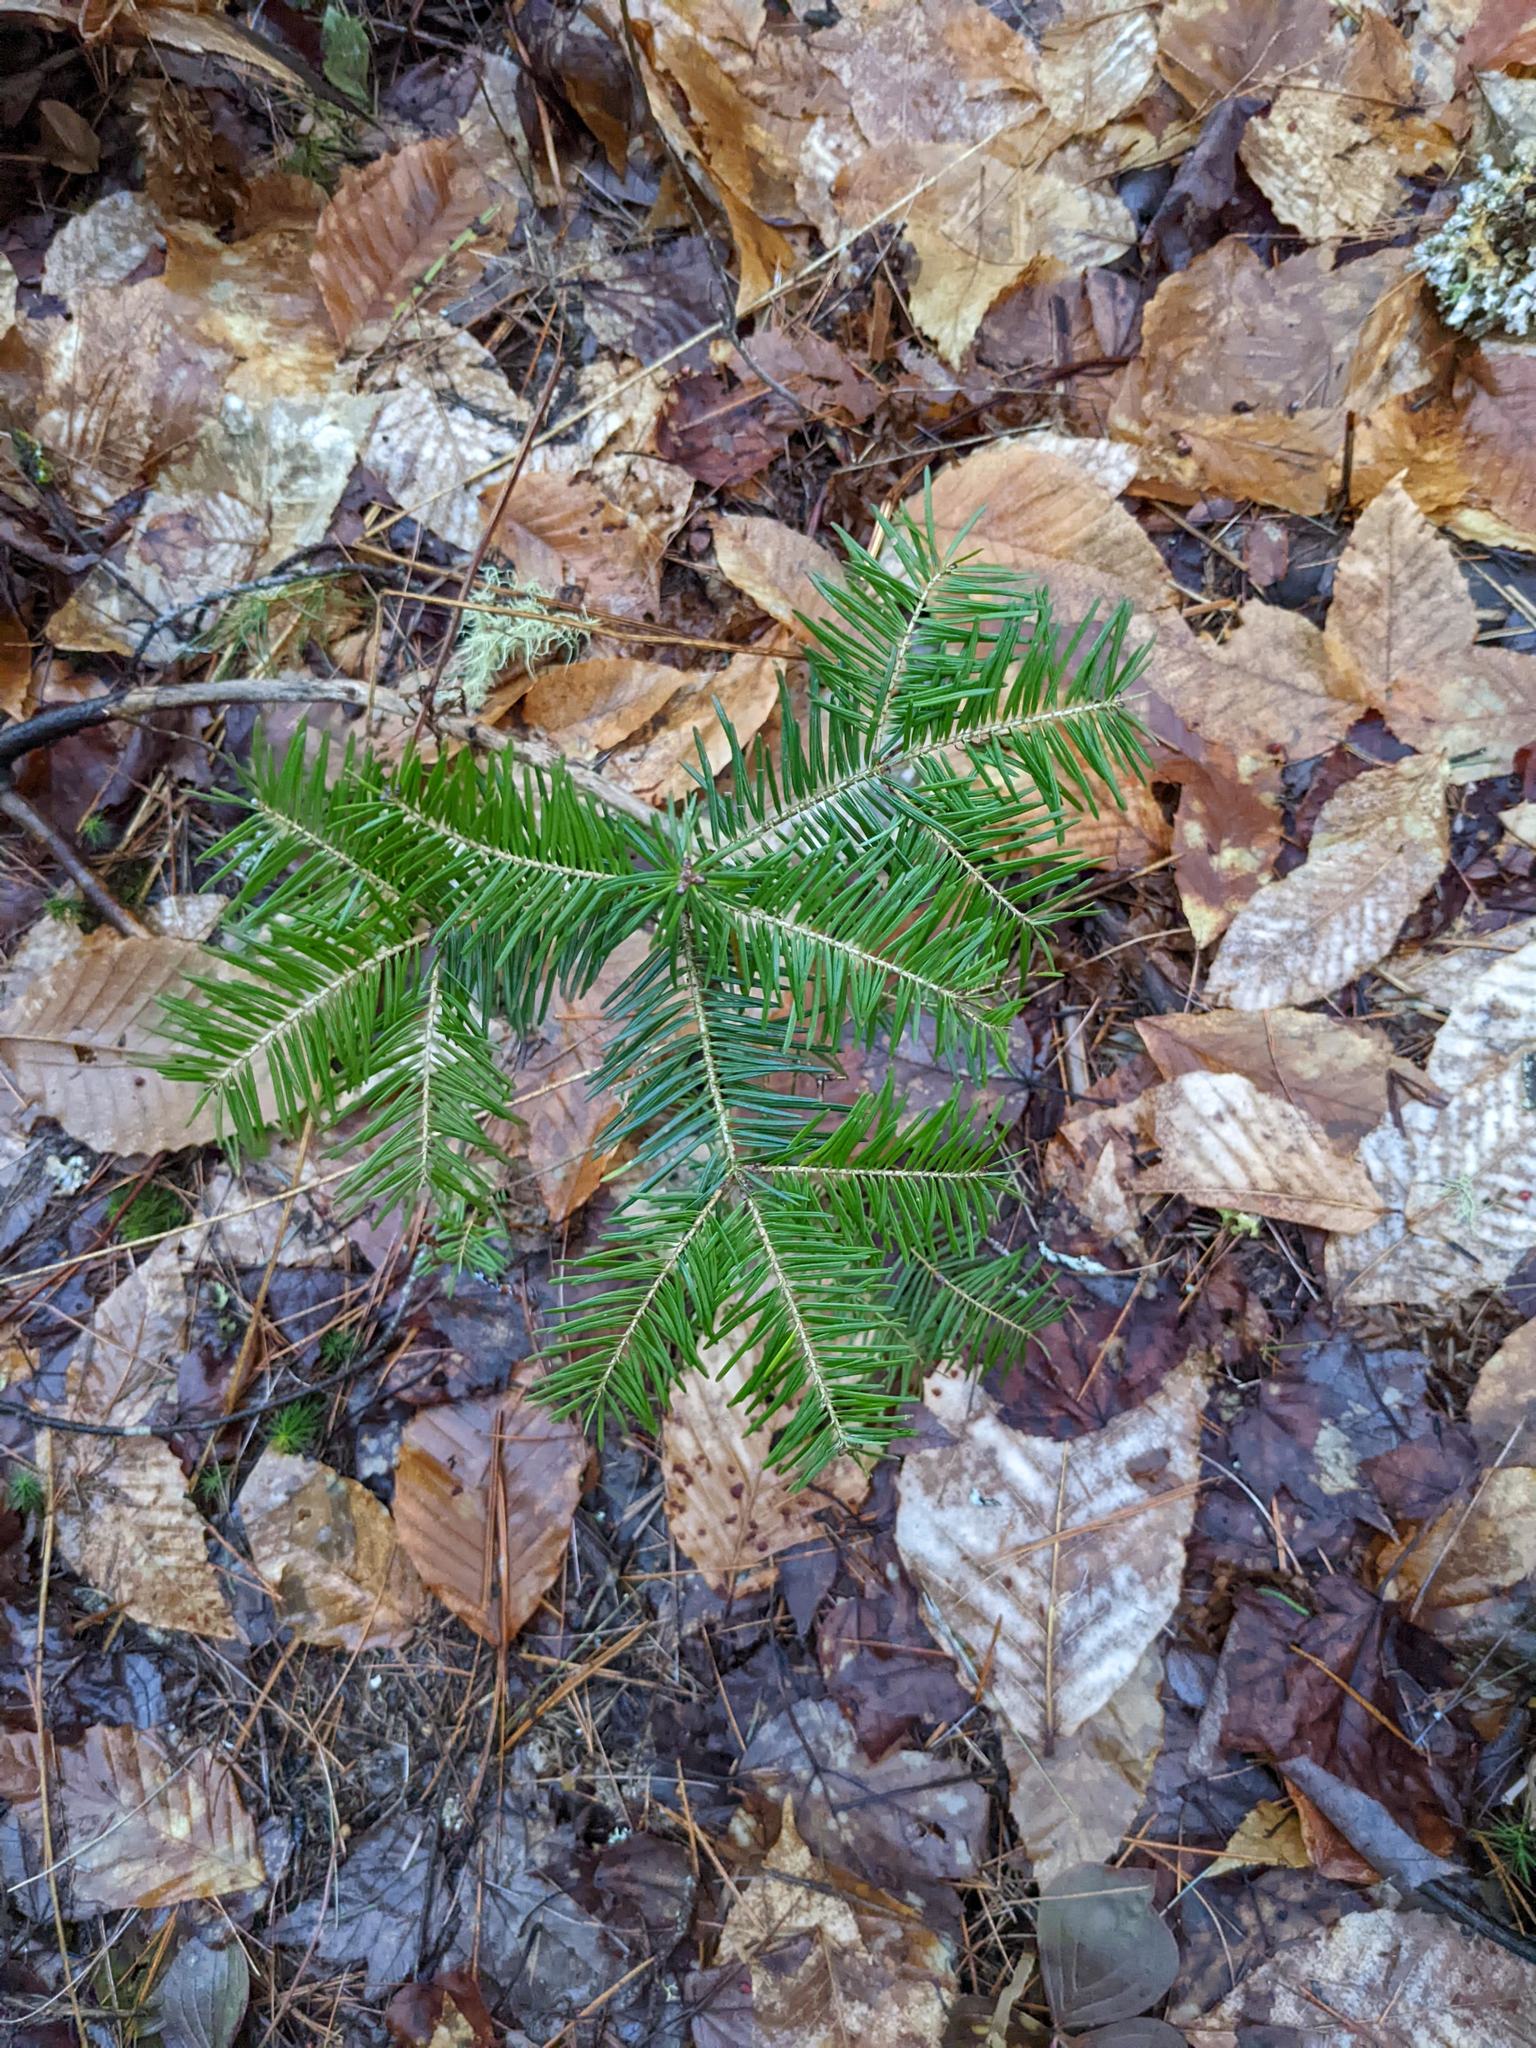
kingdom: Plantae
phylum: Tracheophyta
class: Pinopsida
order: Pinales
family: Pinaceae
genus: Abies
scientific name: Abies balsamea
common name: Balsam fir
